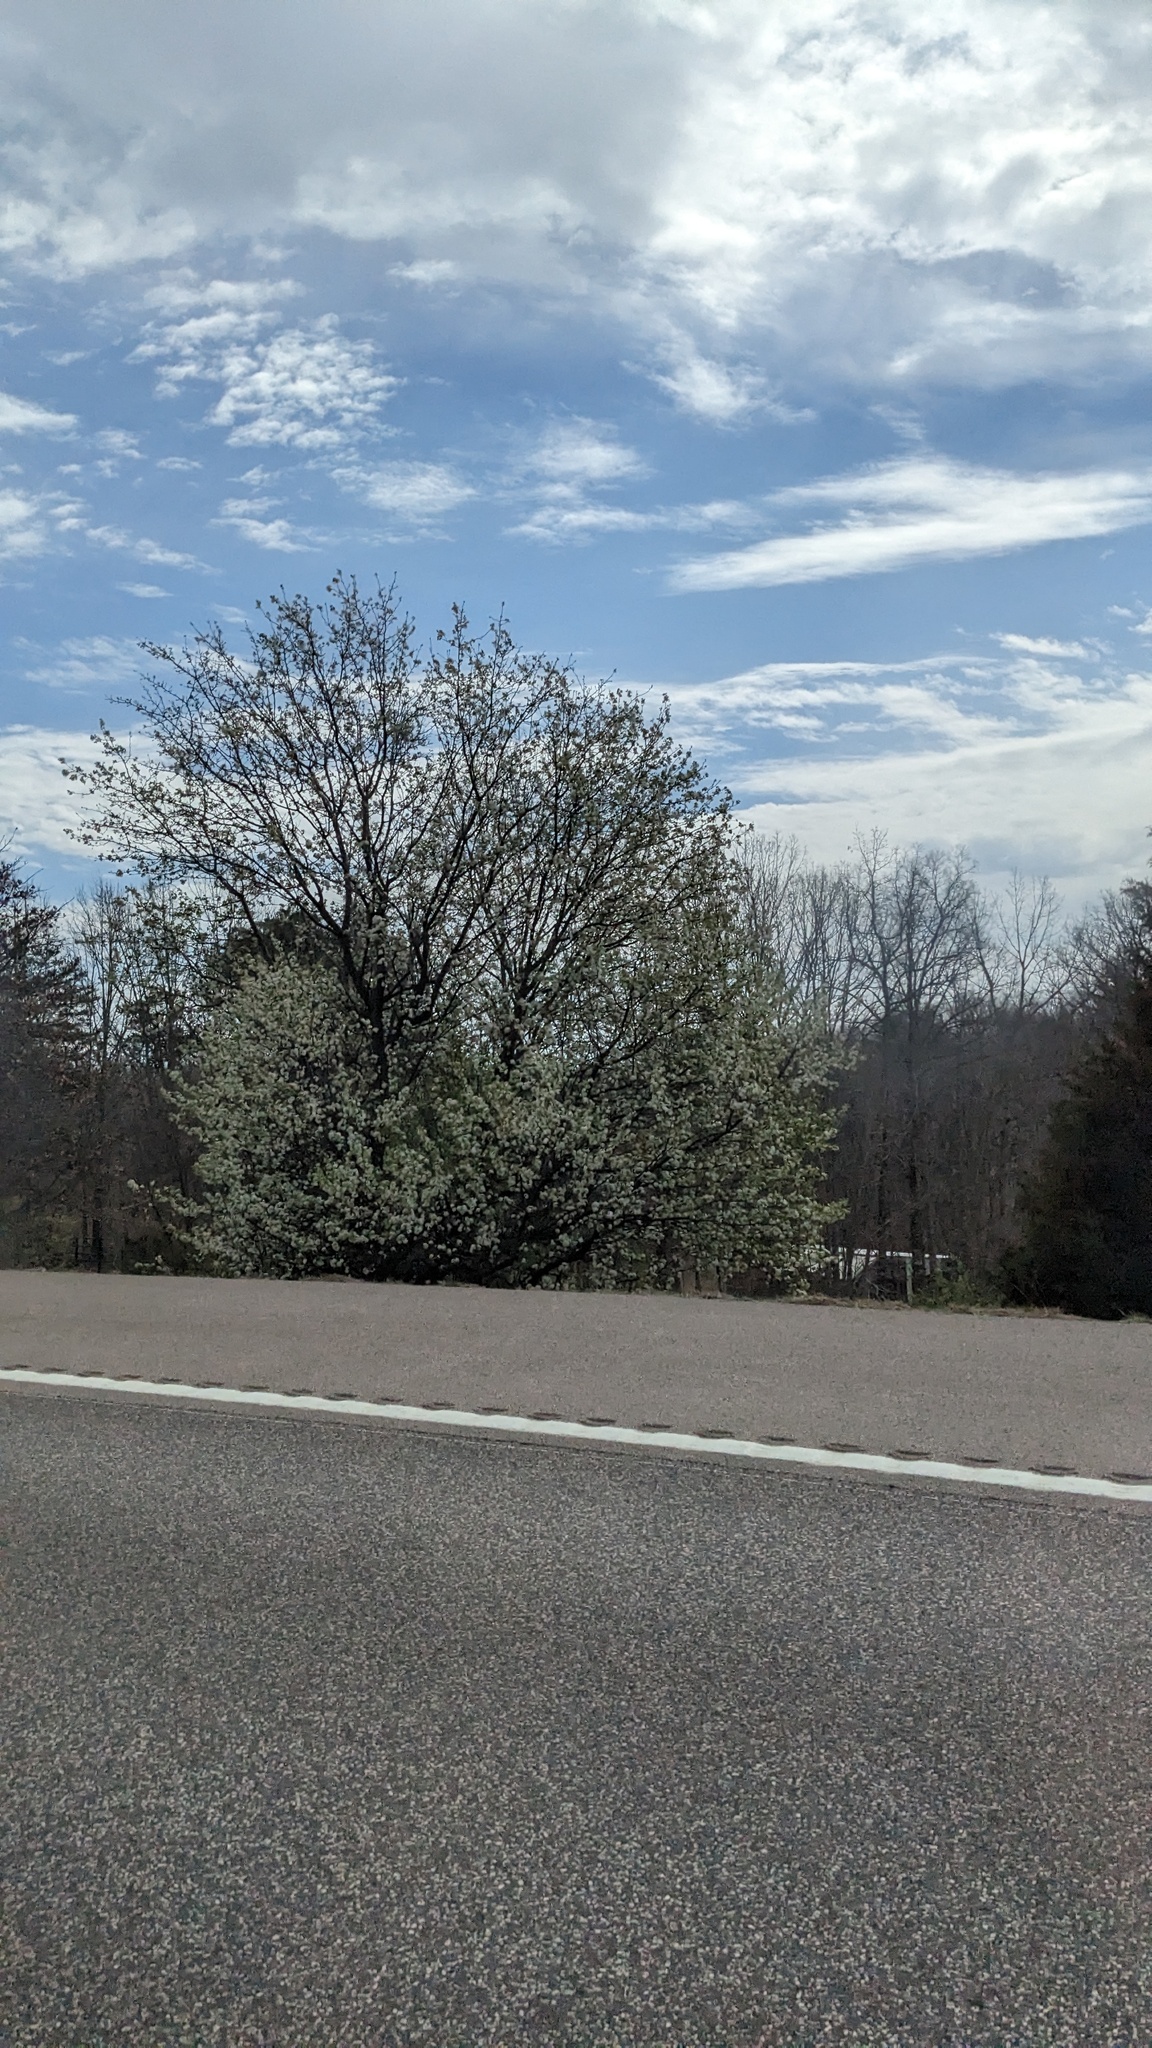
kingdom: Plantae
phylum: Tracheophyta
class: Magnoliopsida
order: Rosales
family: Rosaceae
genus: Pyrus
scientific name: Pyrus calleryana
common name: Callery pear
